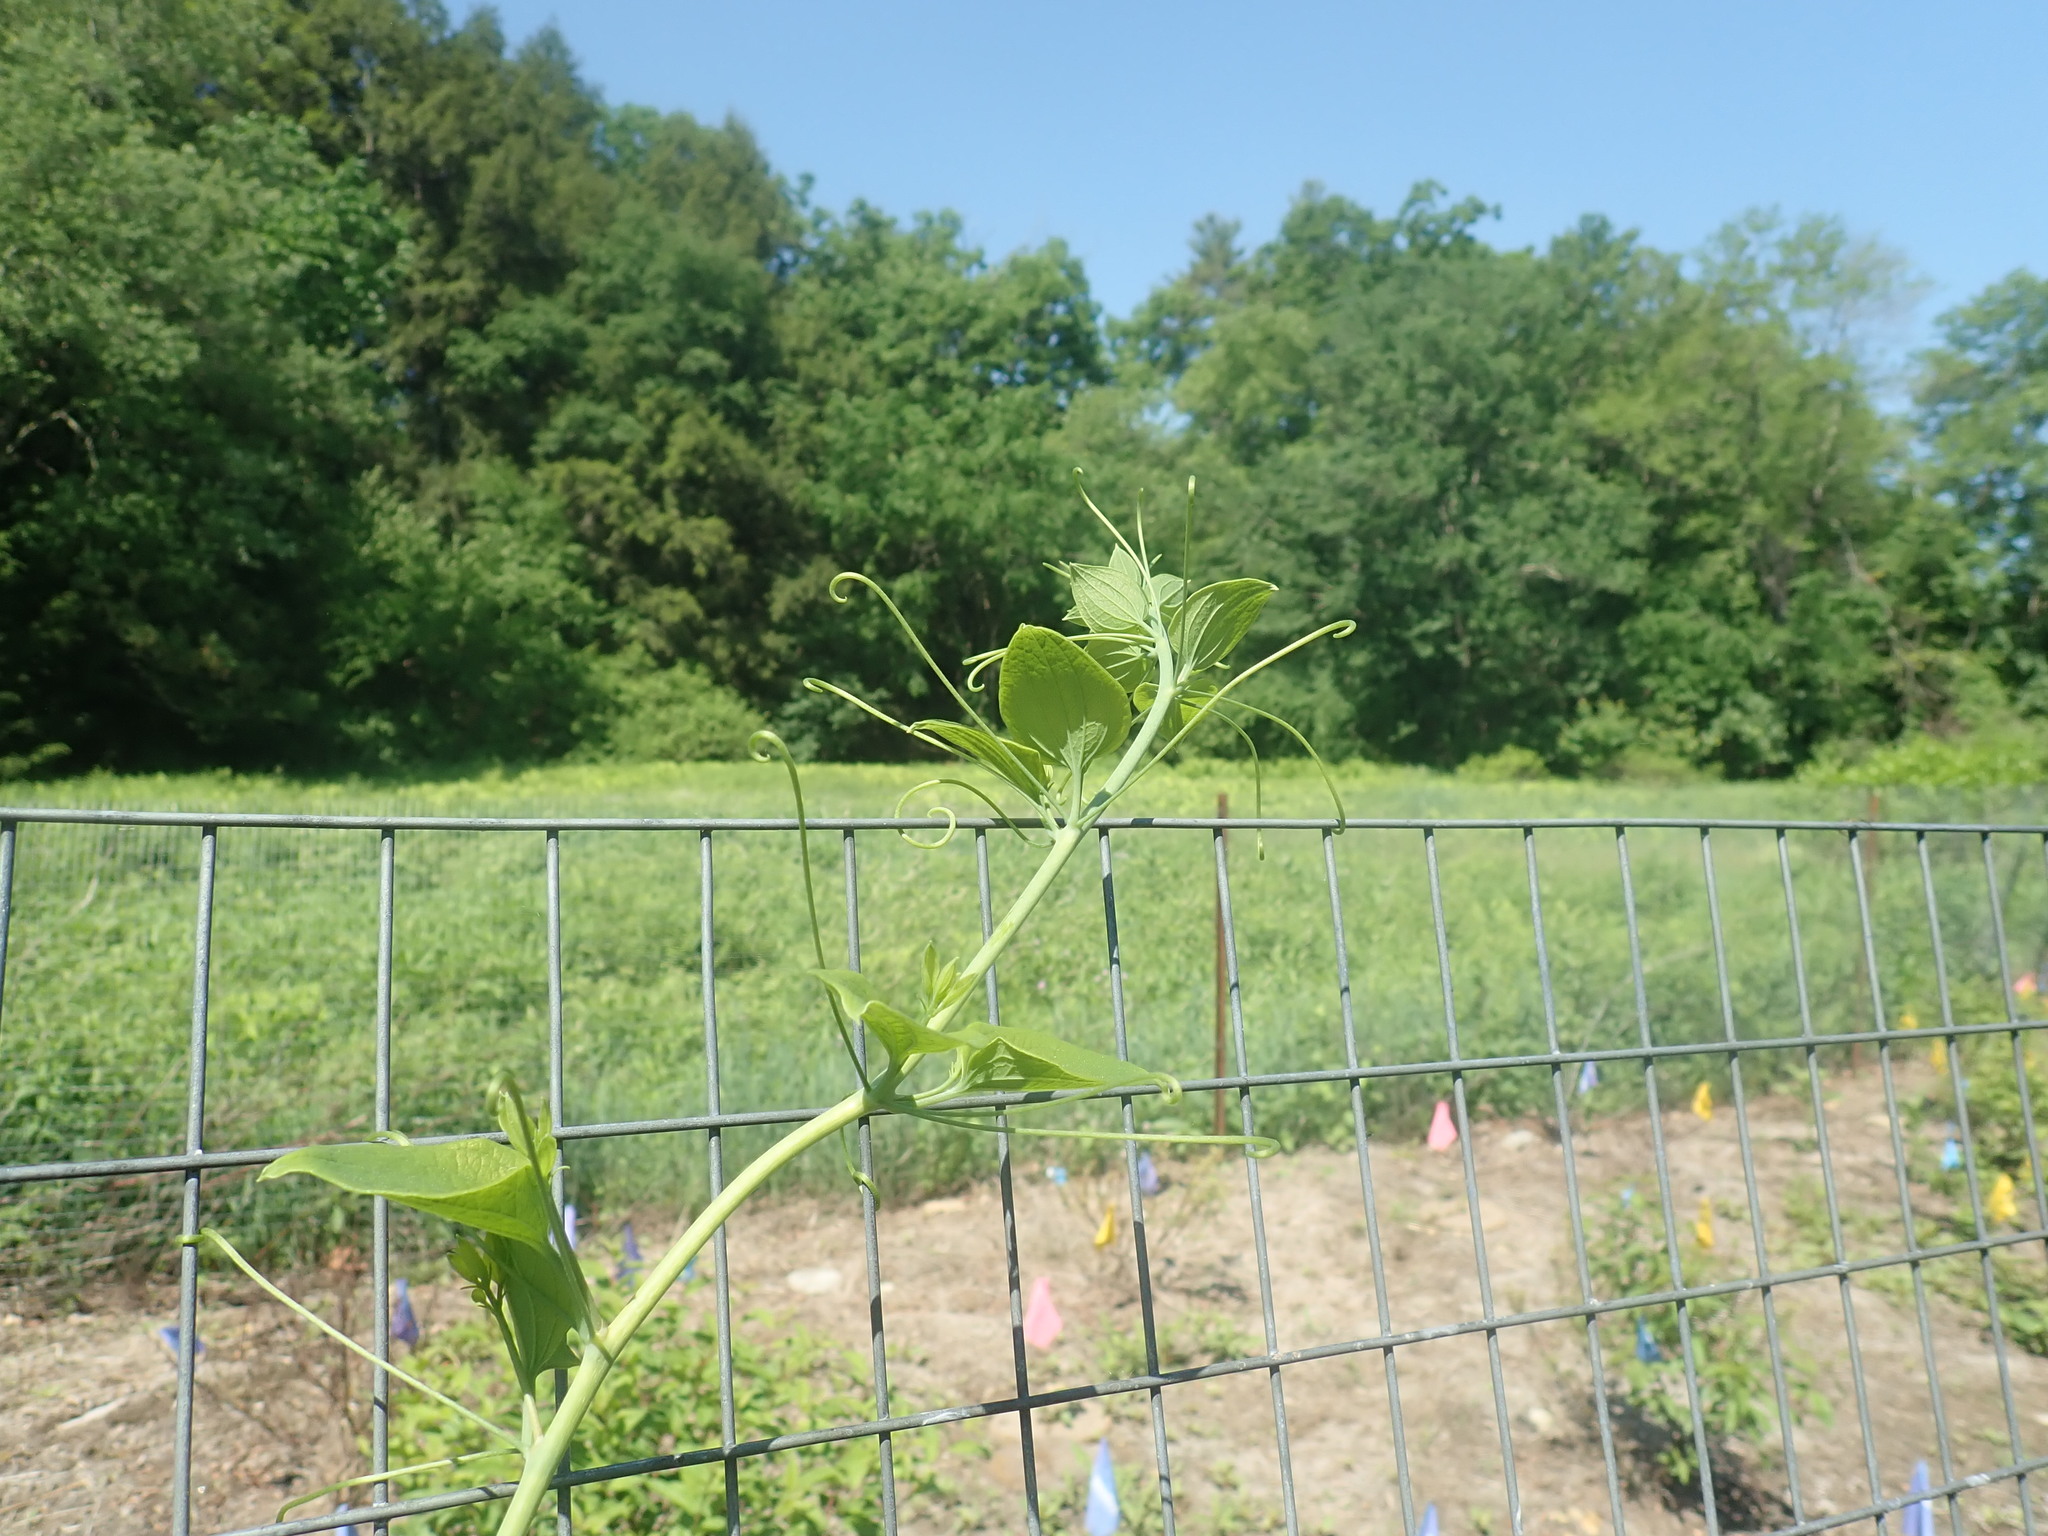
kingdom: Plantae
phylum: Tracheophyta
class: Liliopsida
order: Liliales
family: Smilacaceae
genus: Smilax
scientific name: Smilax herbacea
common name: Jacob's-ladder
